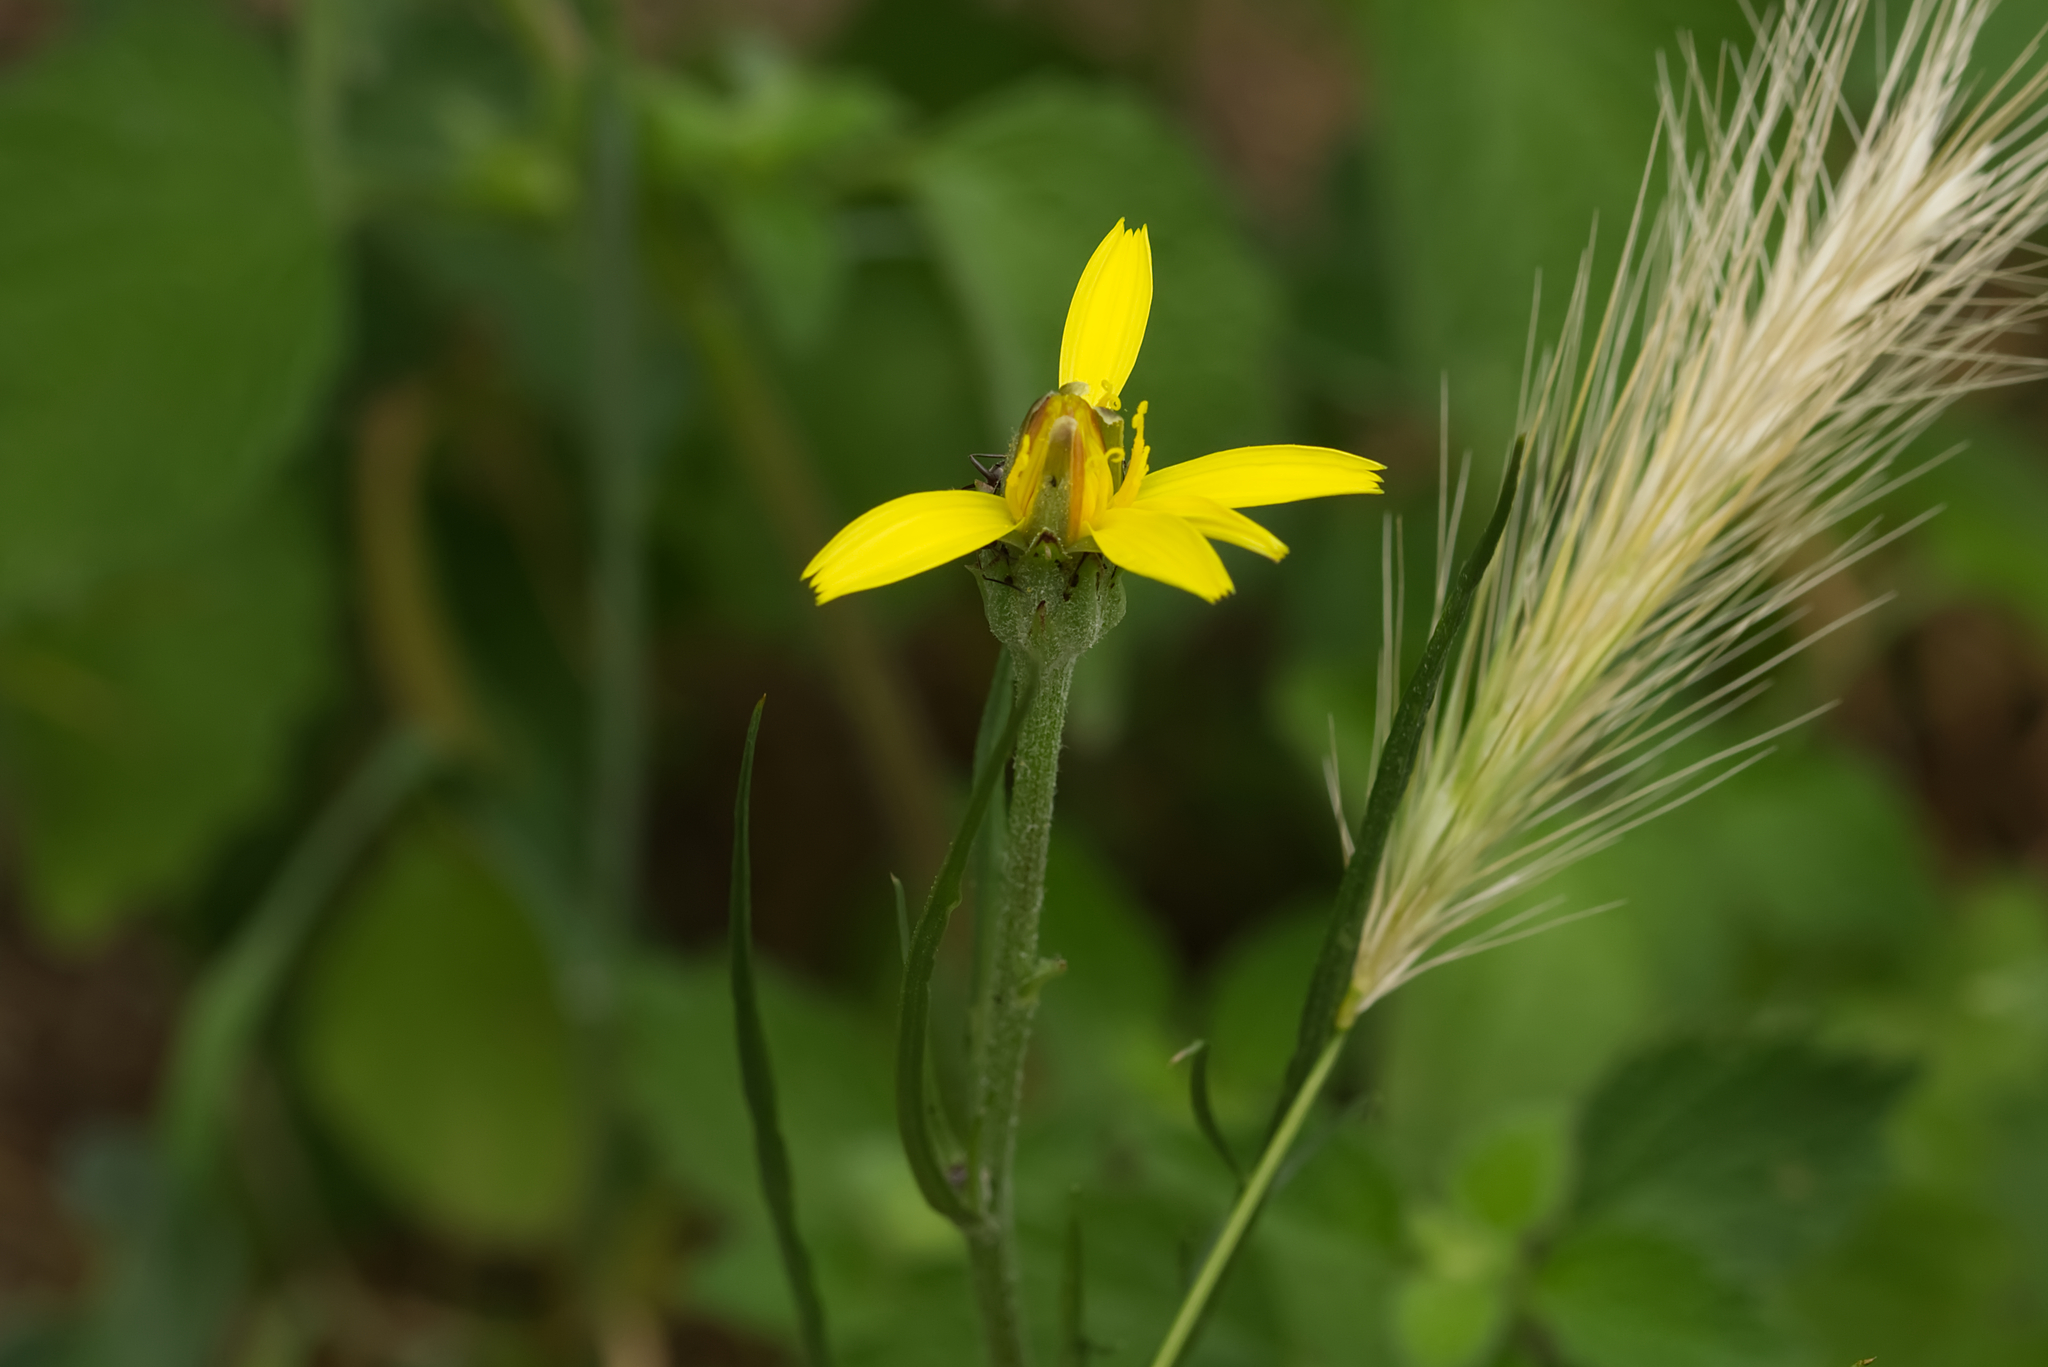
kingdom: Plantae
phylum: Tracheophyta
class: Magnoliopsida
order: Asterales
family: Asteraceae
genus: Scorzonera
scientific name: Scorzonera cana
